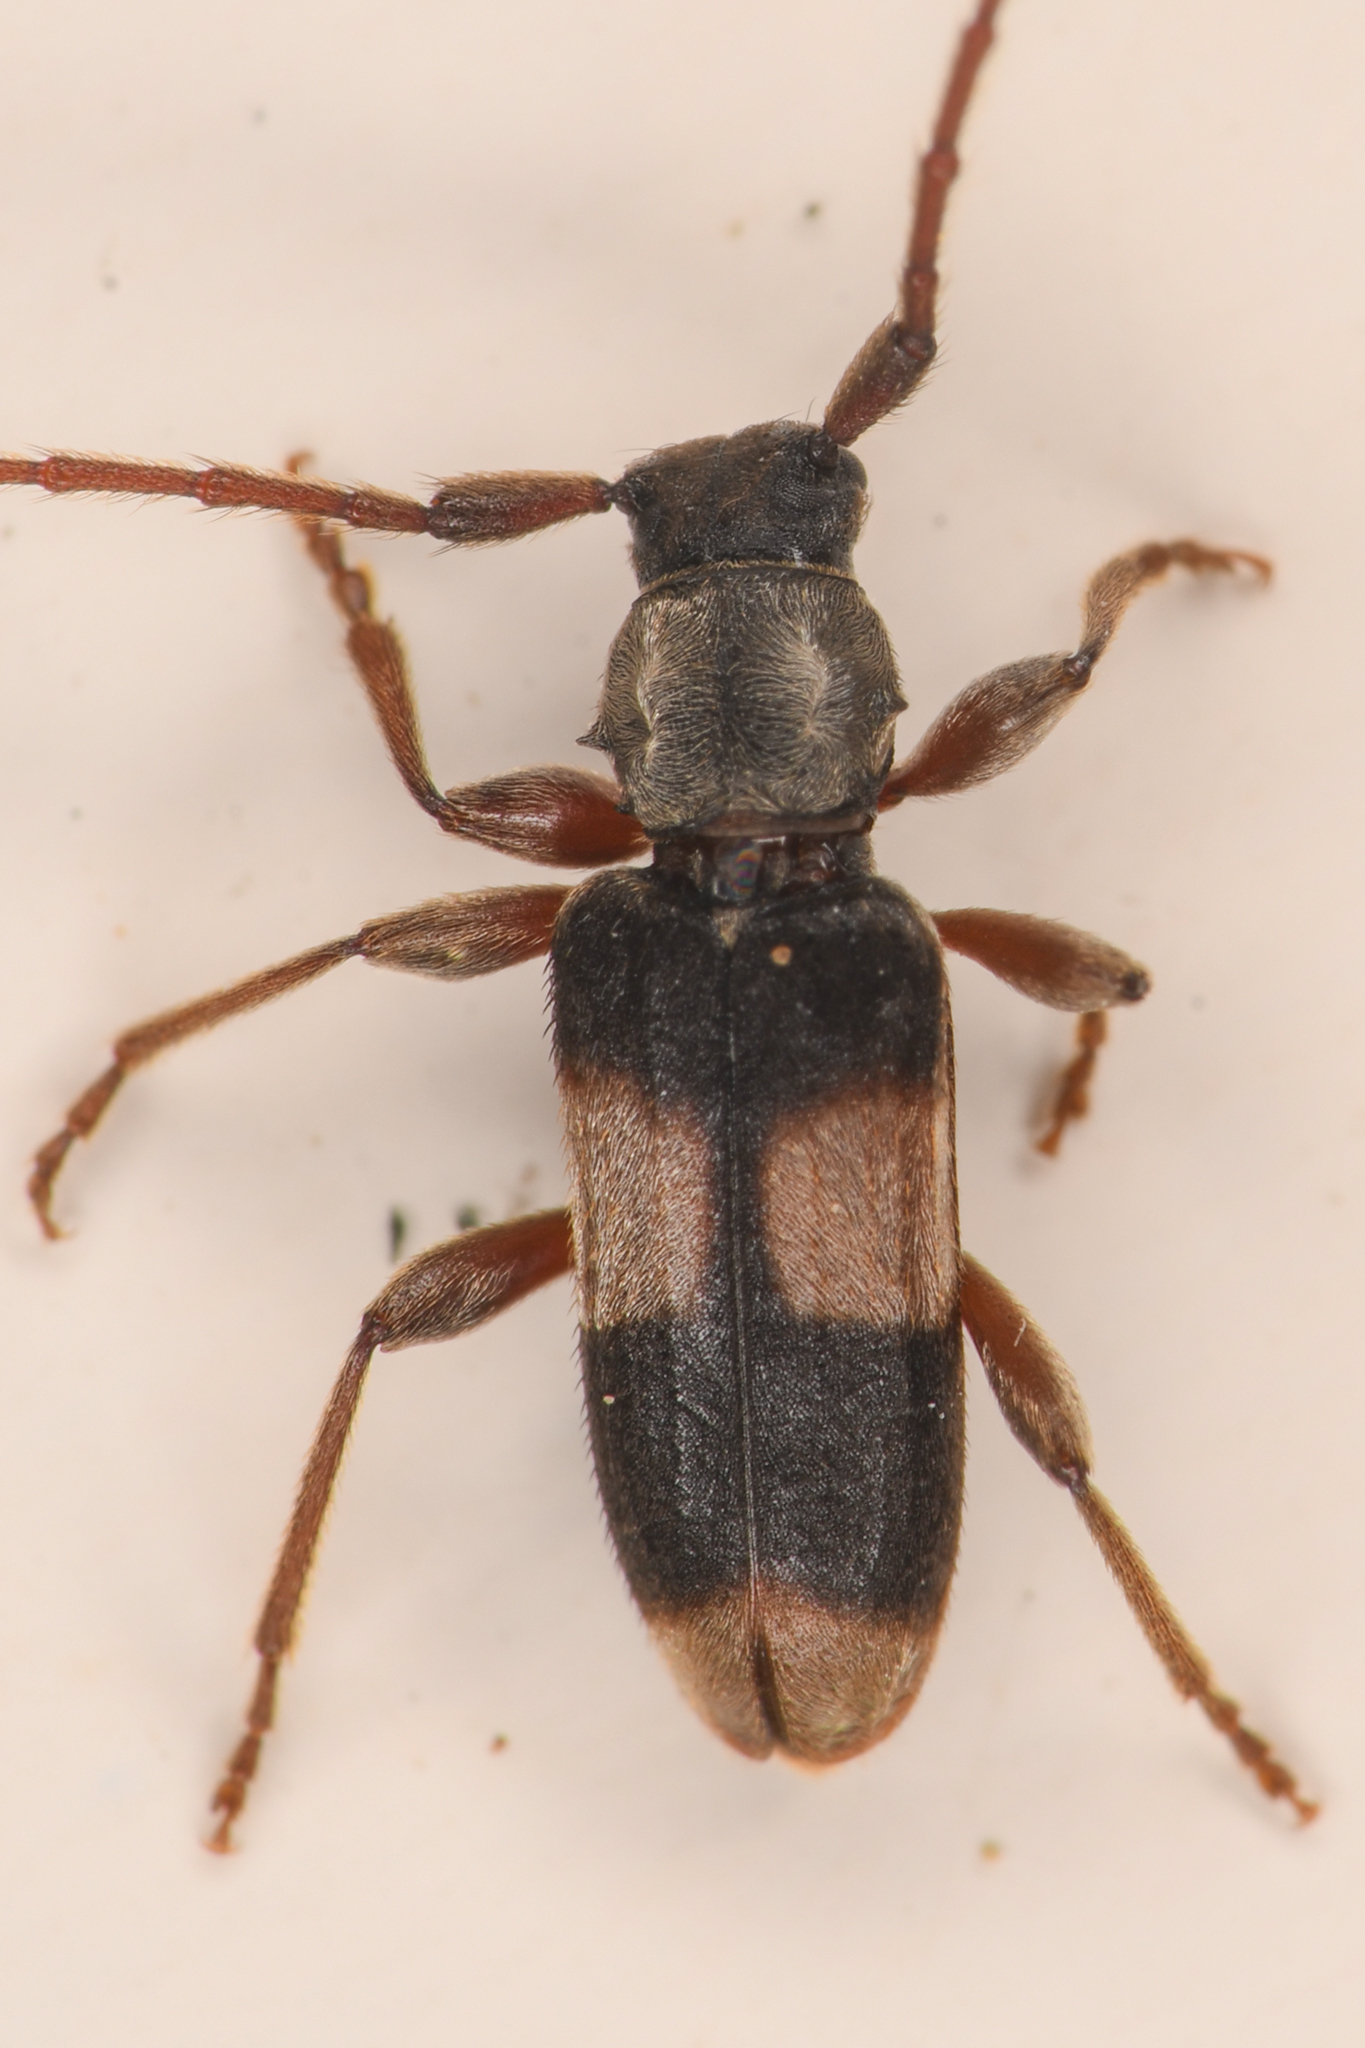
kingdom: Animalia
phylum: Arthropoda
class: Insecta
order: Coleoptera
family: Cerambycidae
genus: Dicentrus
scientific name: Dicentrus bluthneri
